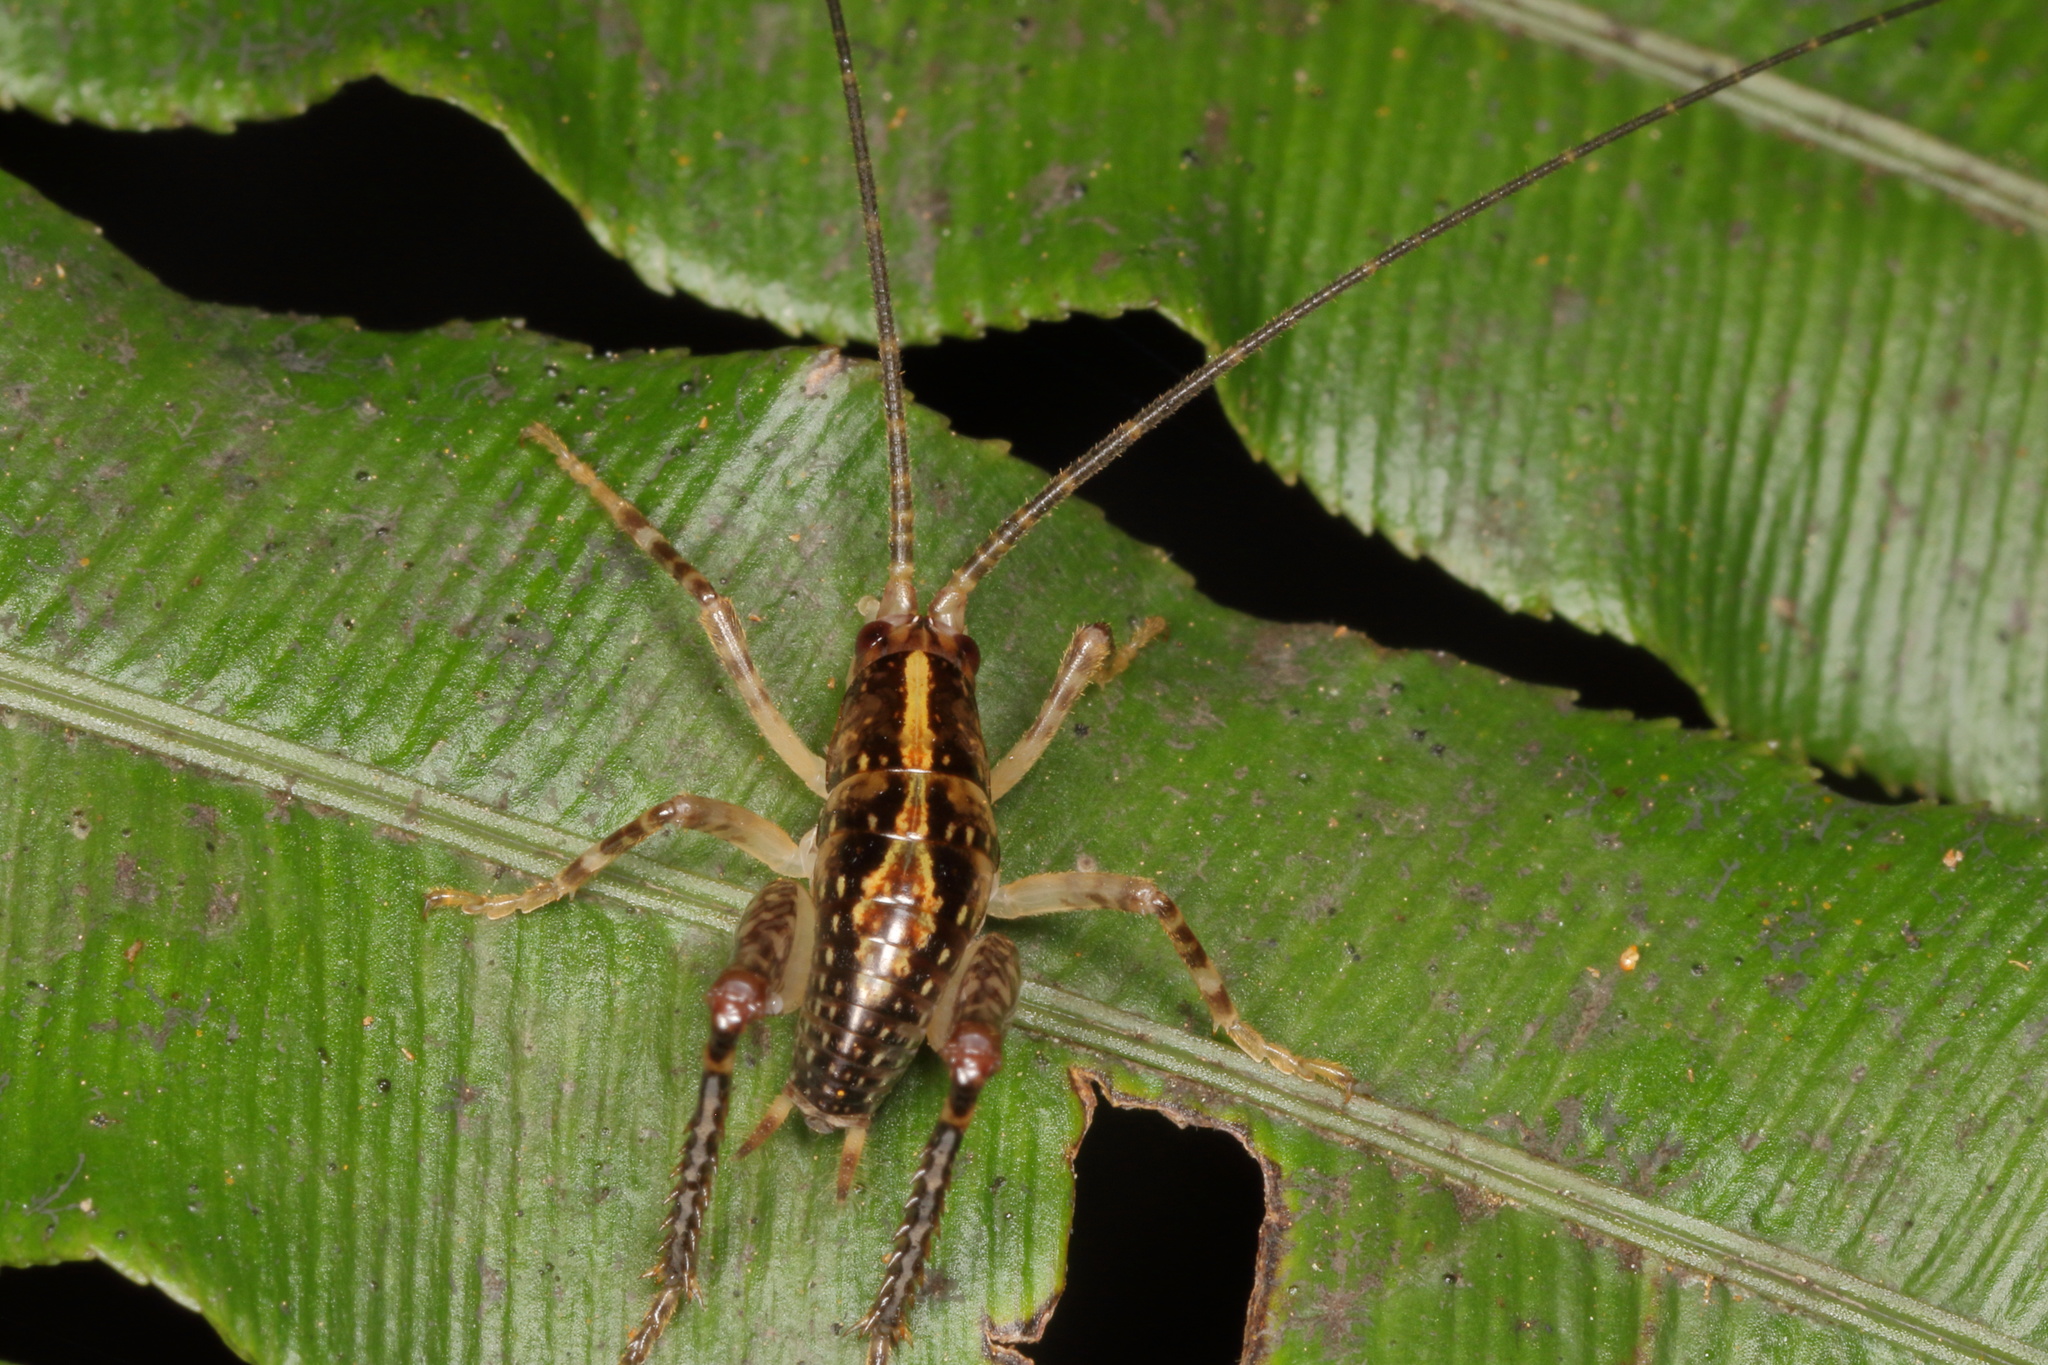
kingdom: Animalia
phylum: Arthropoda
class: Insecta
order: Orthoptera
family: Rhaphidophoridae
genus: Talitropsis
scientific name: Talitropsis sedilloti
